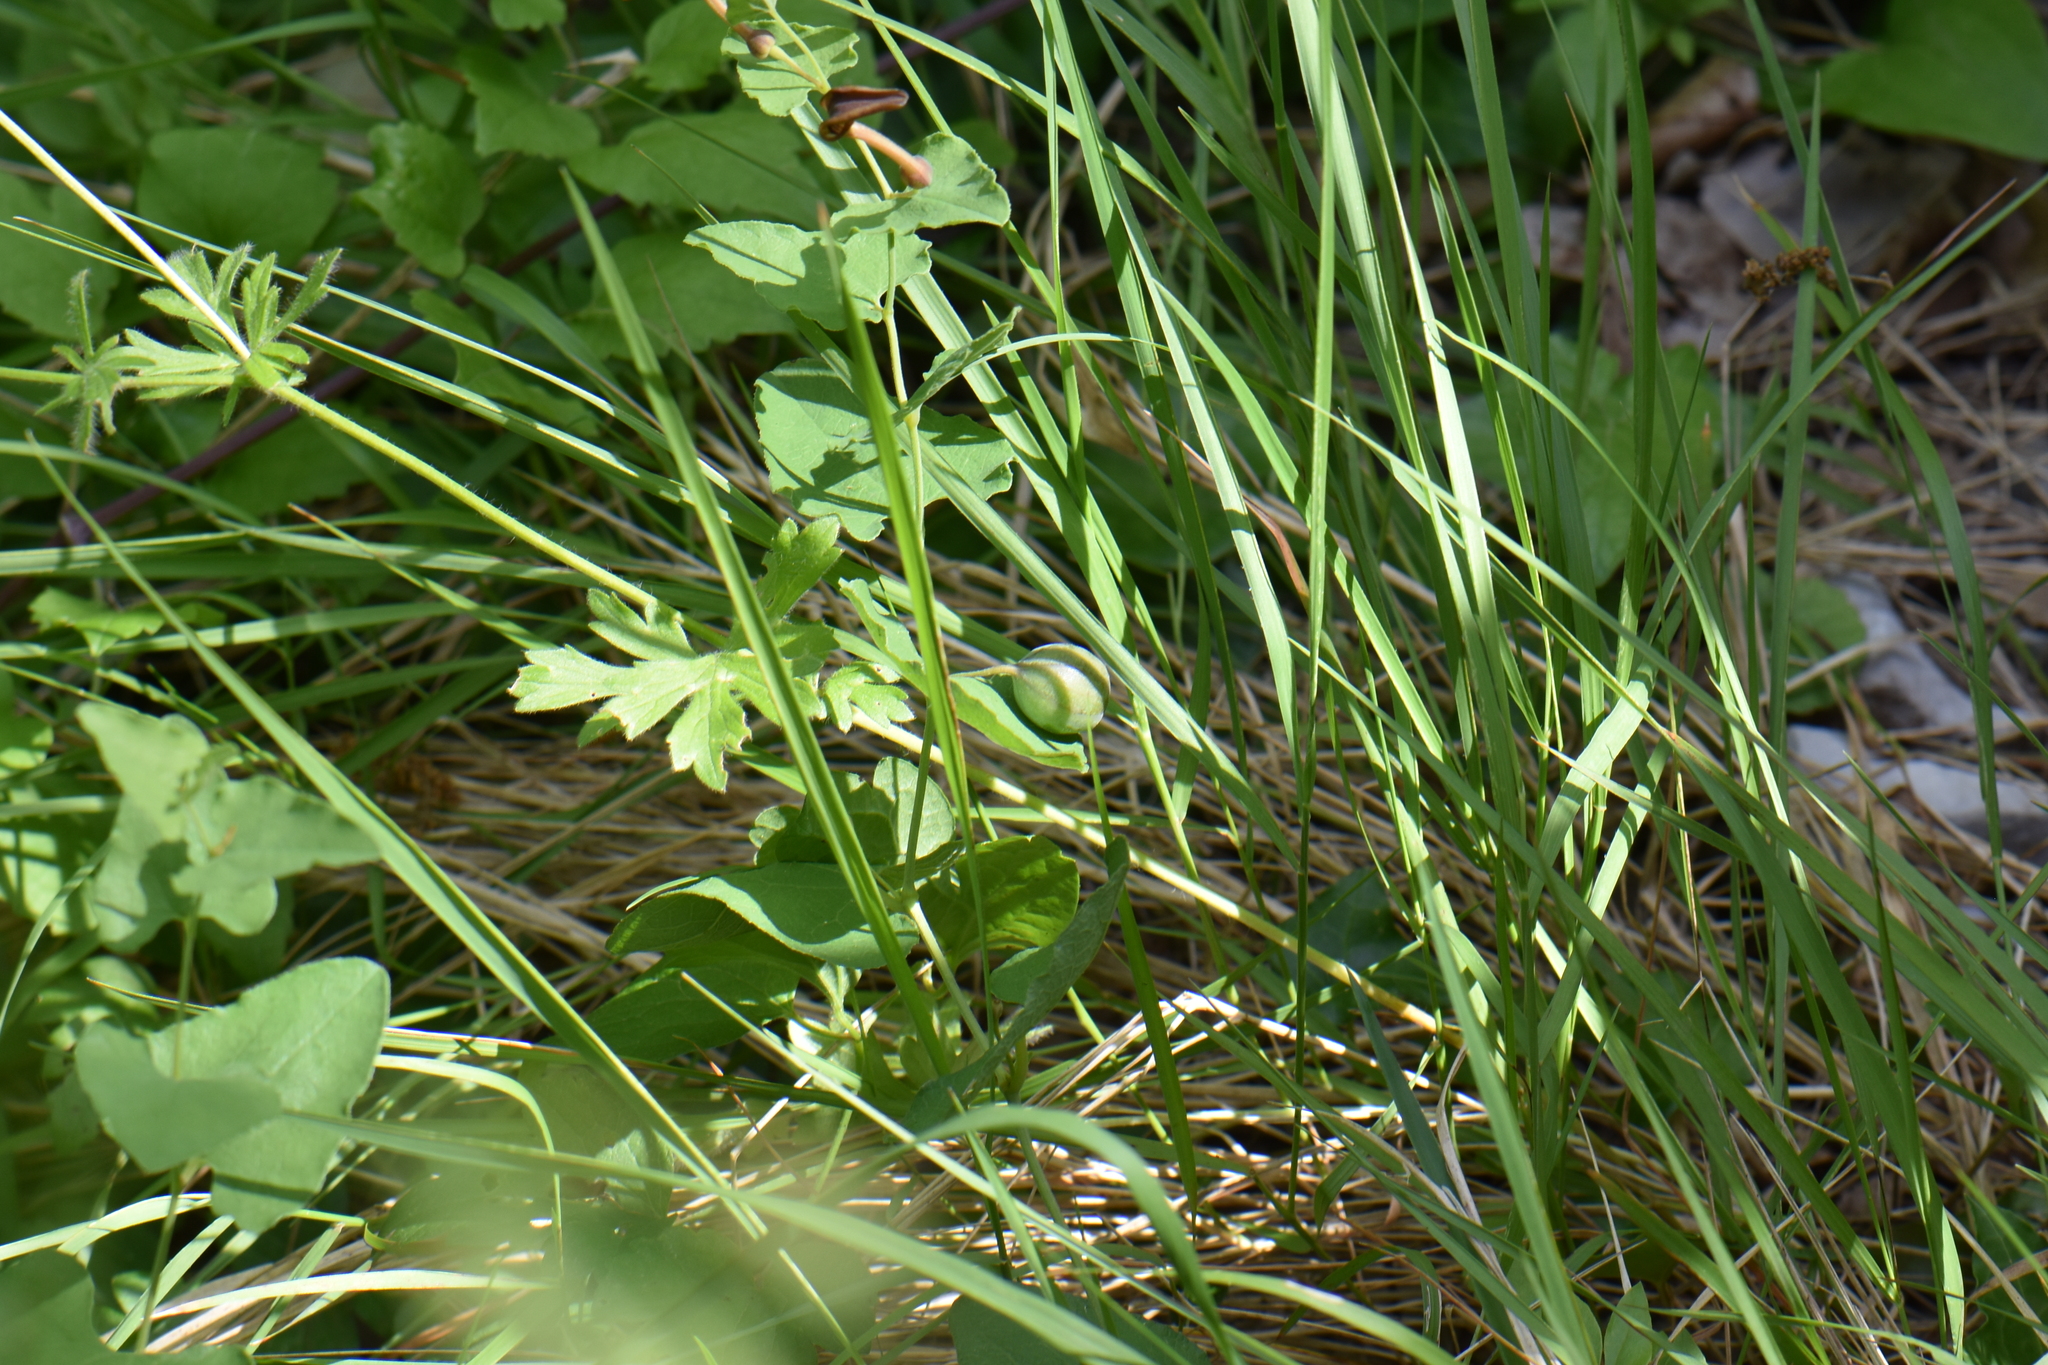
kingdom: Plantae
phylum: Tracheophyta
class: Magnoliopsida
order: Piperales
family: Aristolochiaceae
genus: Aristolochia
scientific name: Aristolochia pistolochia
